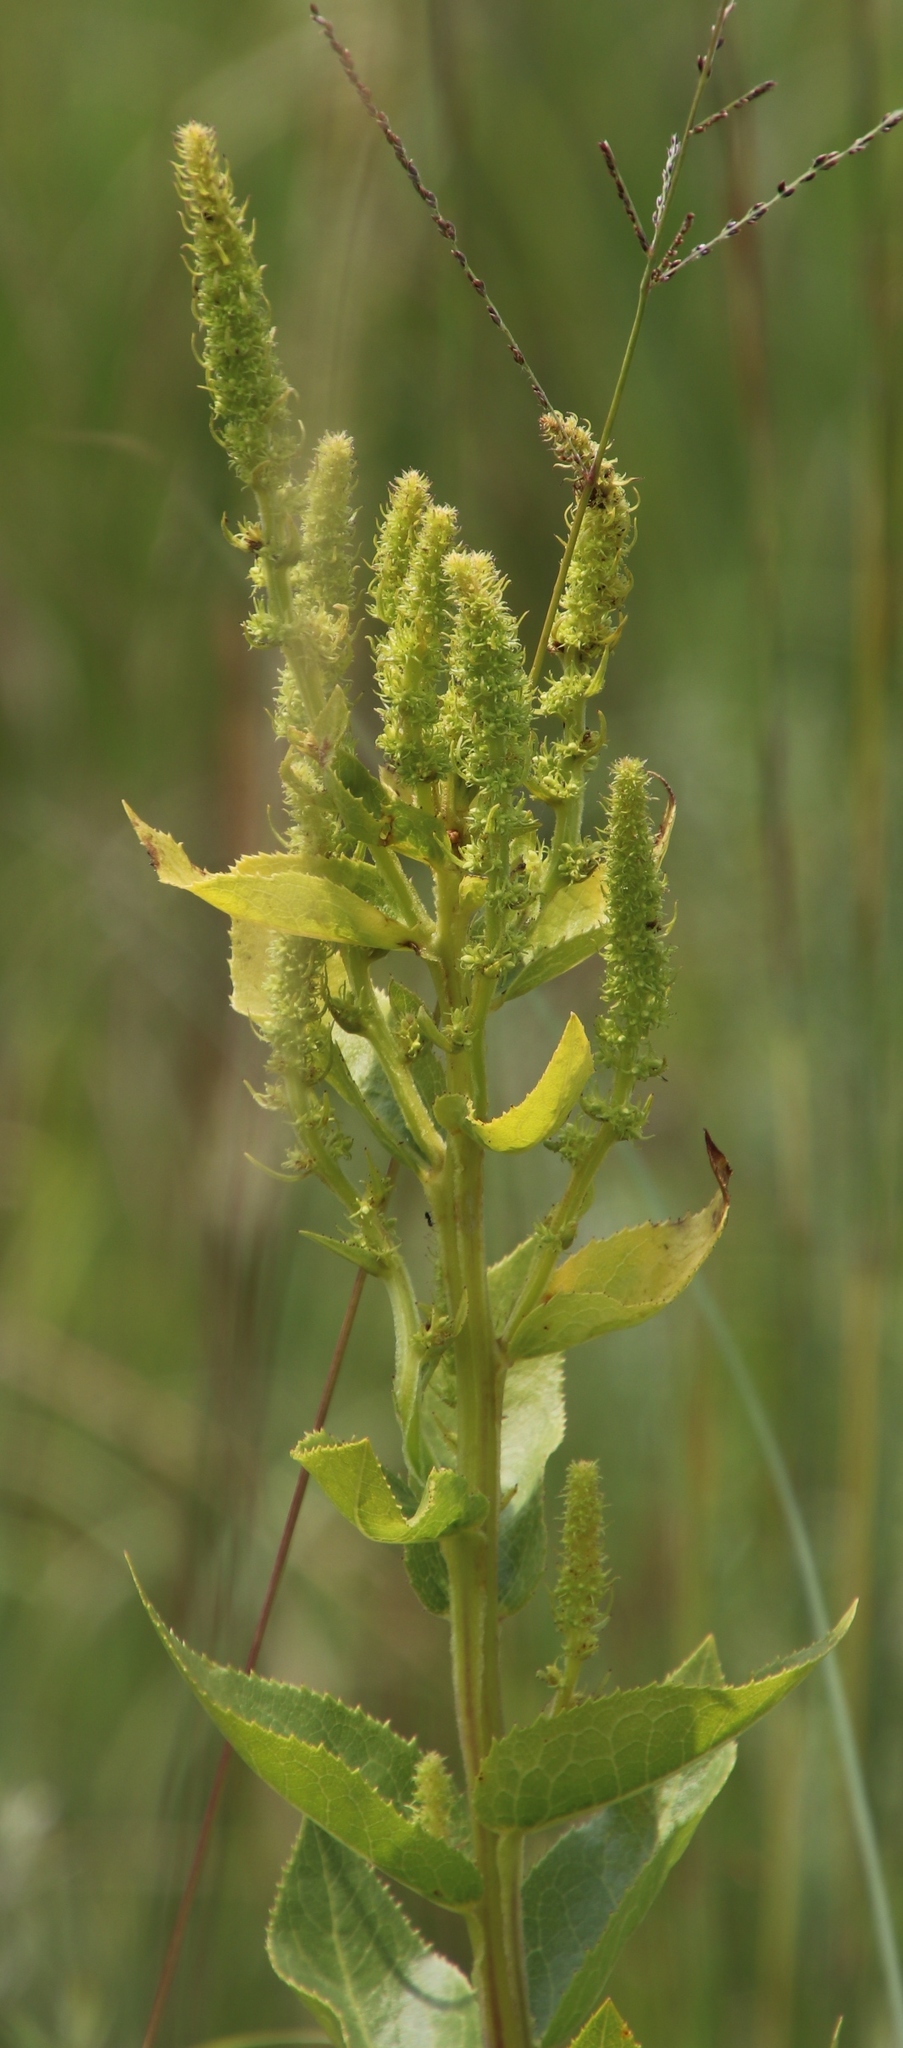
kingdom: Plantae
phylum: Tracheophyta
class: Magnoliopsida
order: Asterales
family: Campanulaceae
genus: Cyphia
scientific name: Cyphia elata
